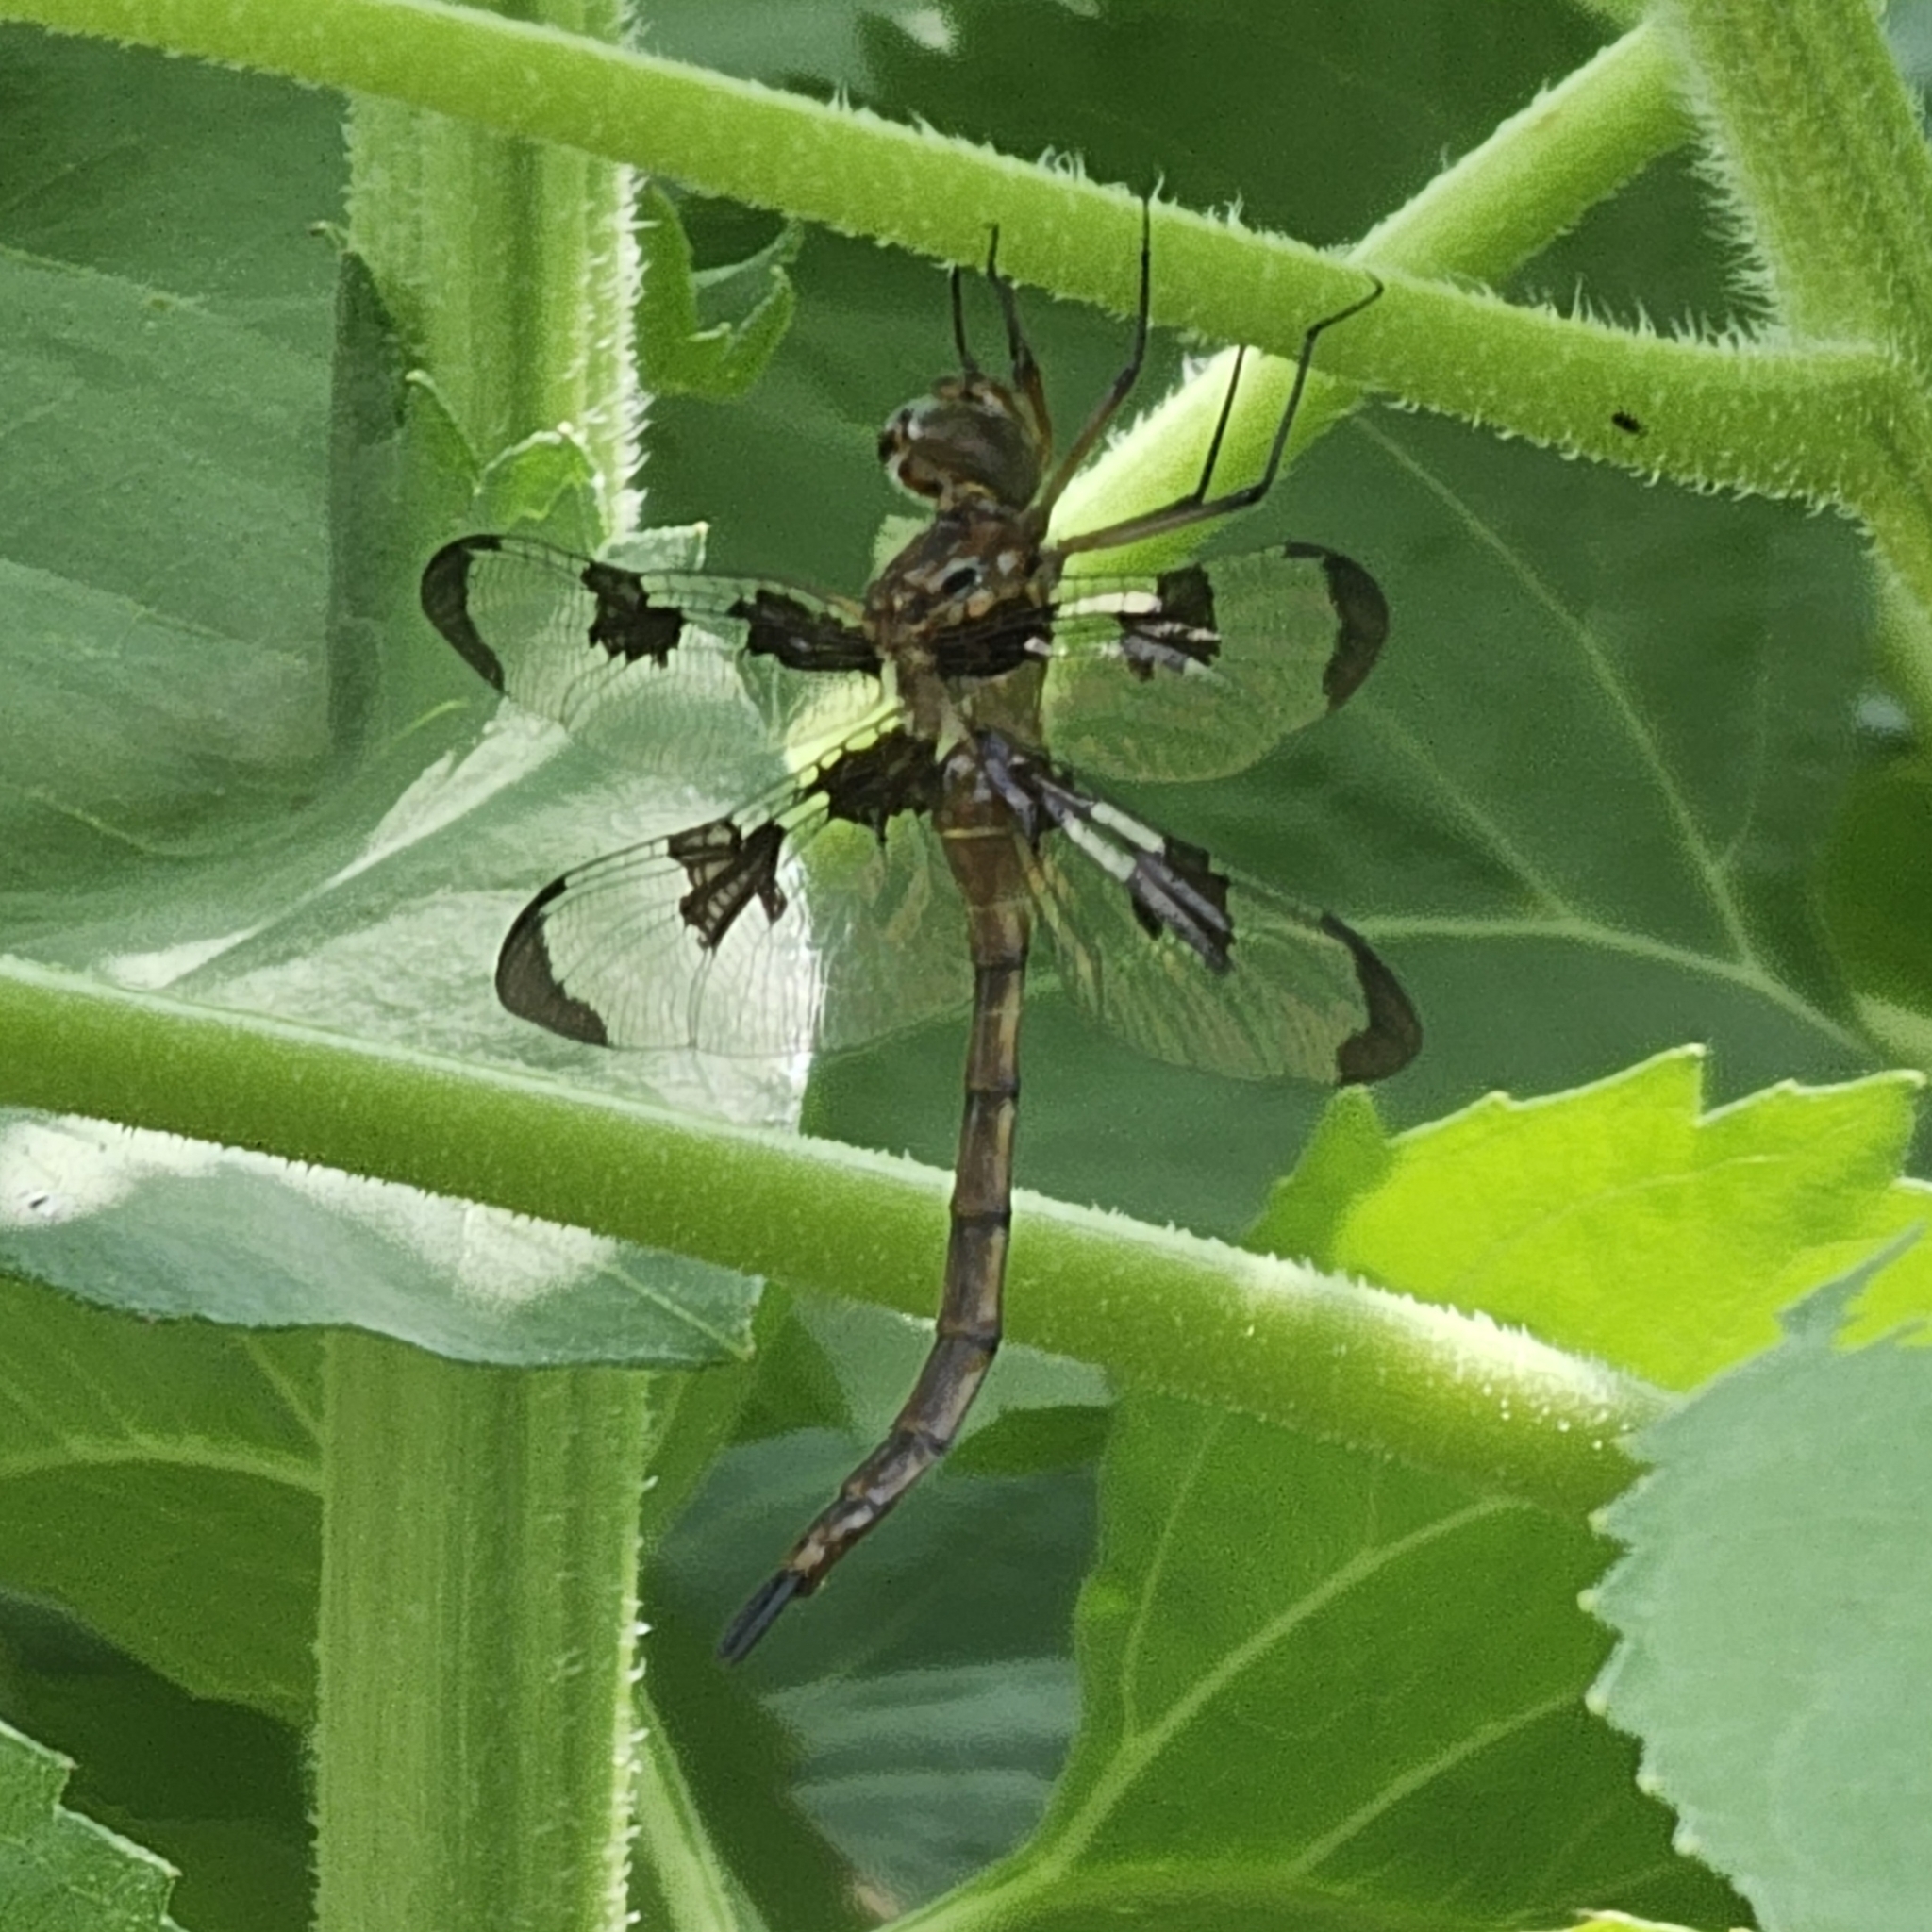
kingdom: Animalia
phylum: Arthropoda
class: Insecta
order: Odonata
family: Corduliidae
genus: Epitheca
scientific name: Epitheca princeps
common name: Prince baskettail
